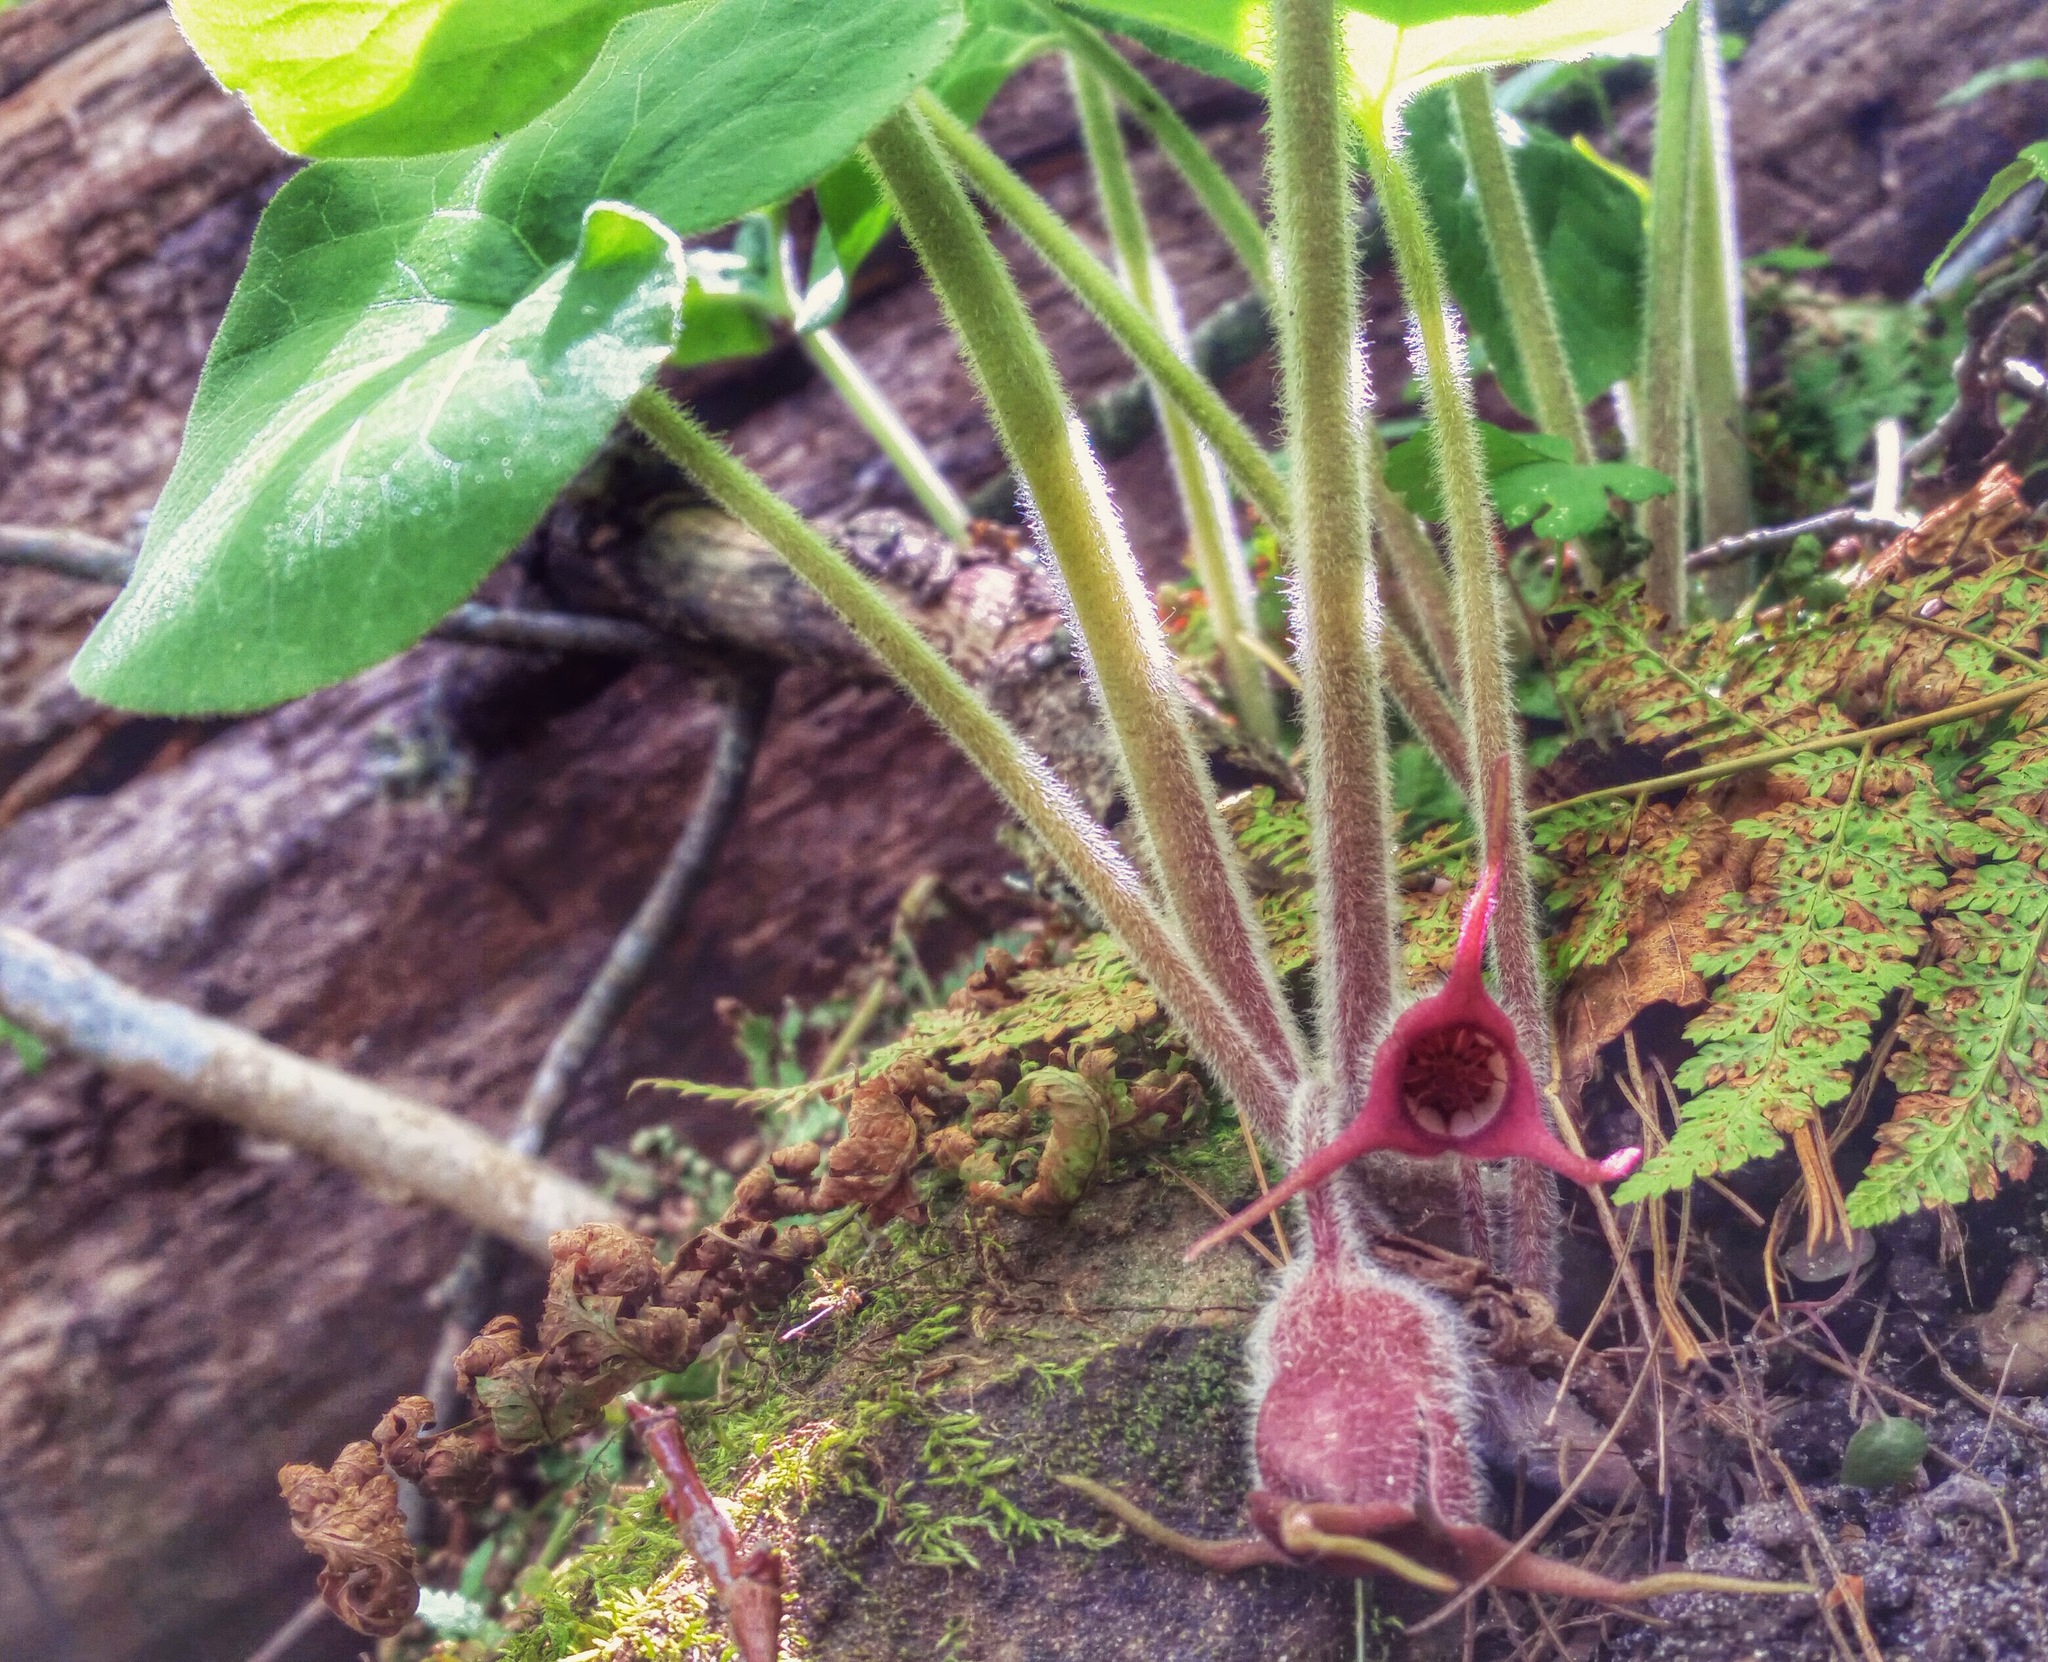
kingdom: Plantae
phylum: Tracheophyta
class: Magnoliopsida
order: Piperales
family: Aristolochiaceae
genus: Asarum
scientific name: Asarum canadense
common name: Wild ginger
